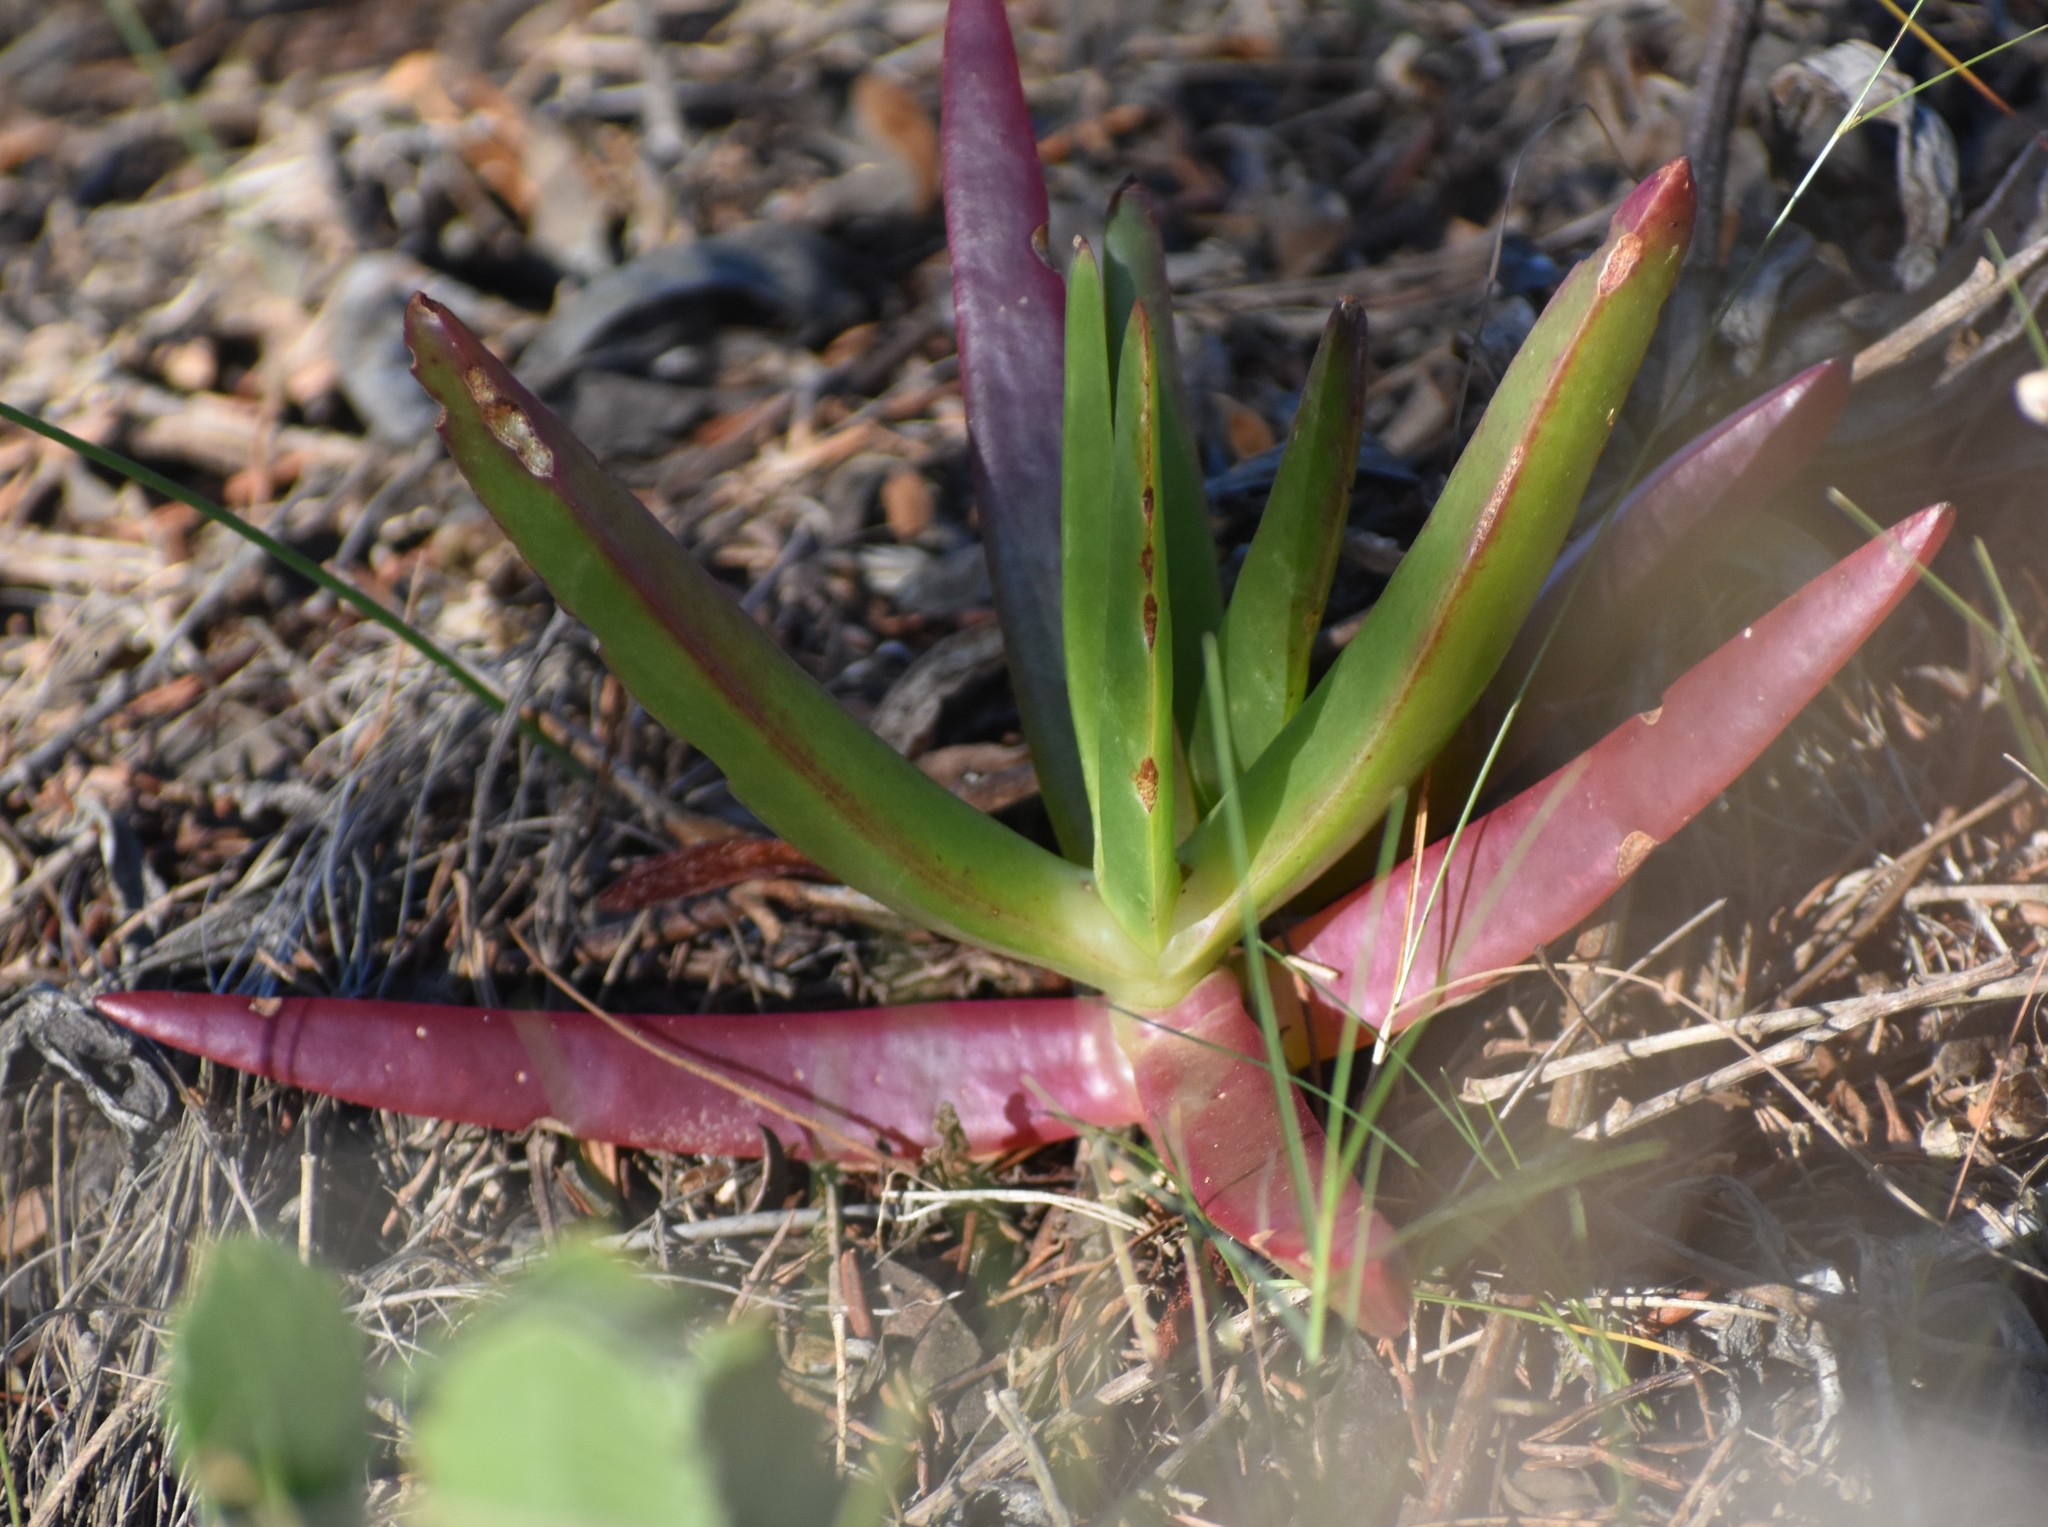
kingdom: Plantae
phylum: Tracheophyta
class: Magnoliopsida
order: Caryophyllales
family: Aizoaceae
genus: Carpobrotus
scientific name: Carpobrotus edulis
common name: Hottentot-fig
